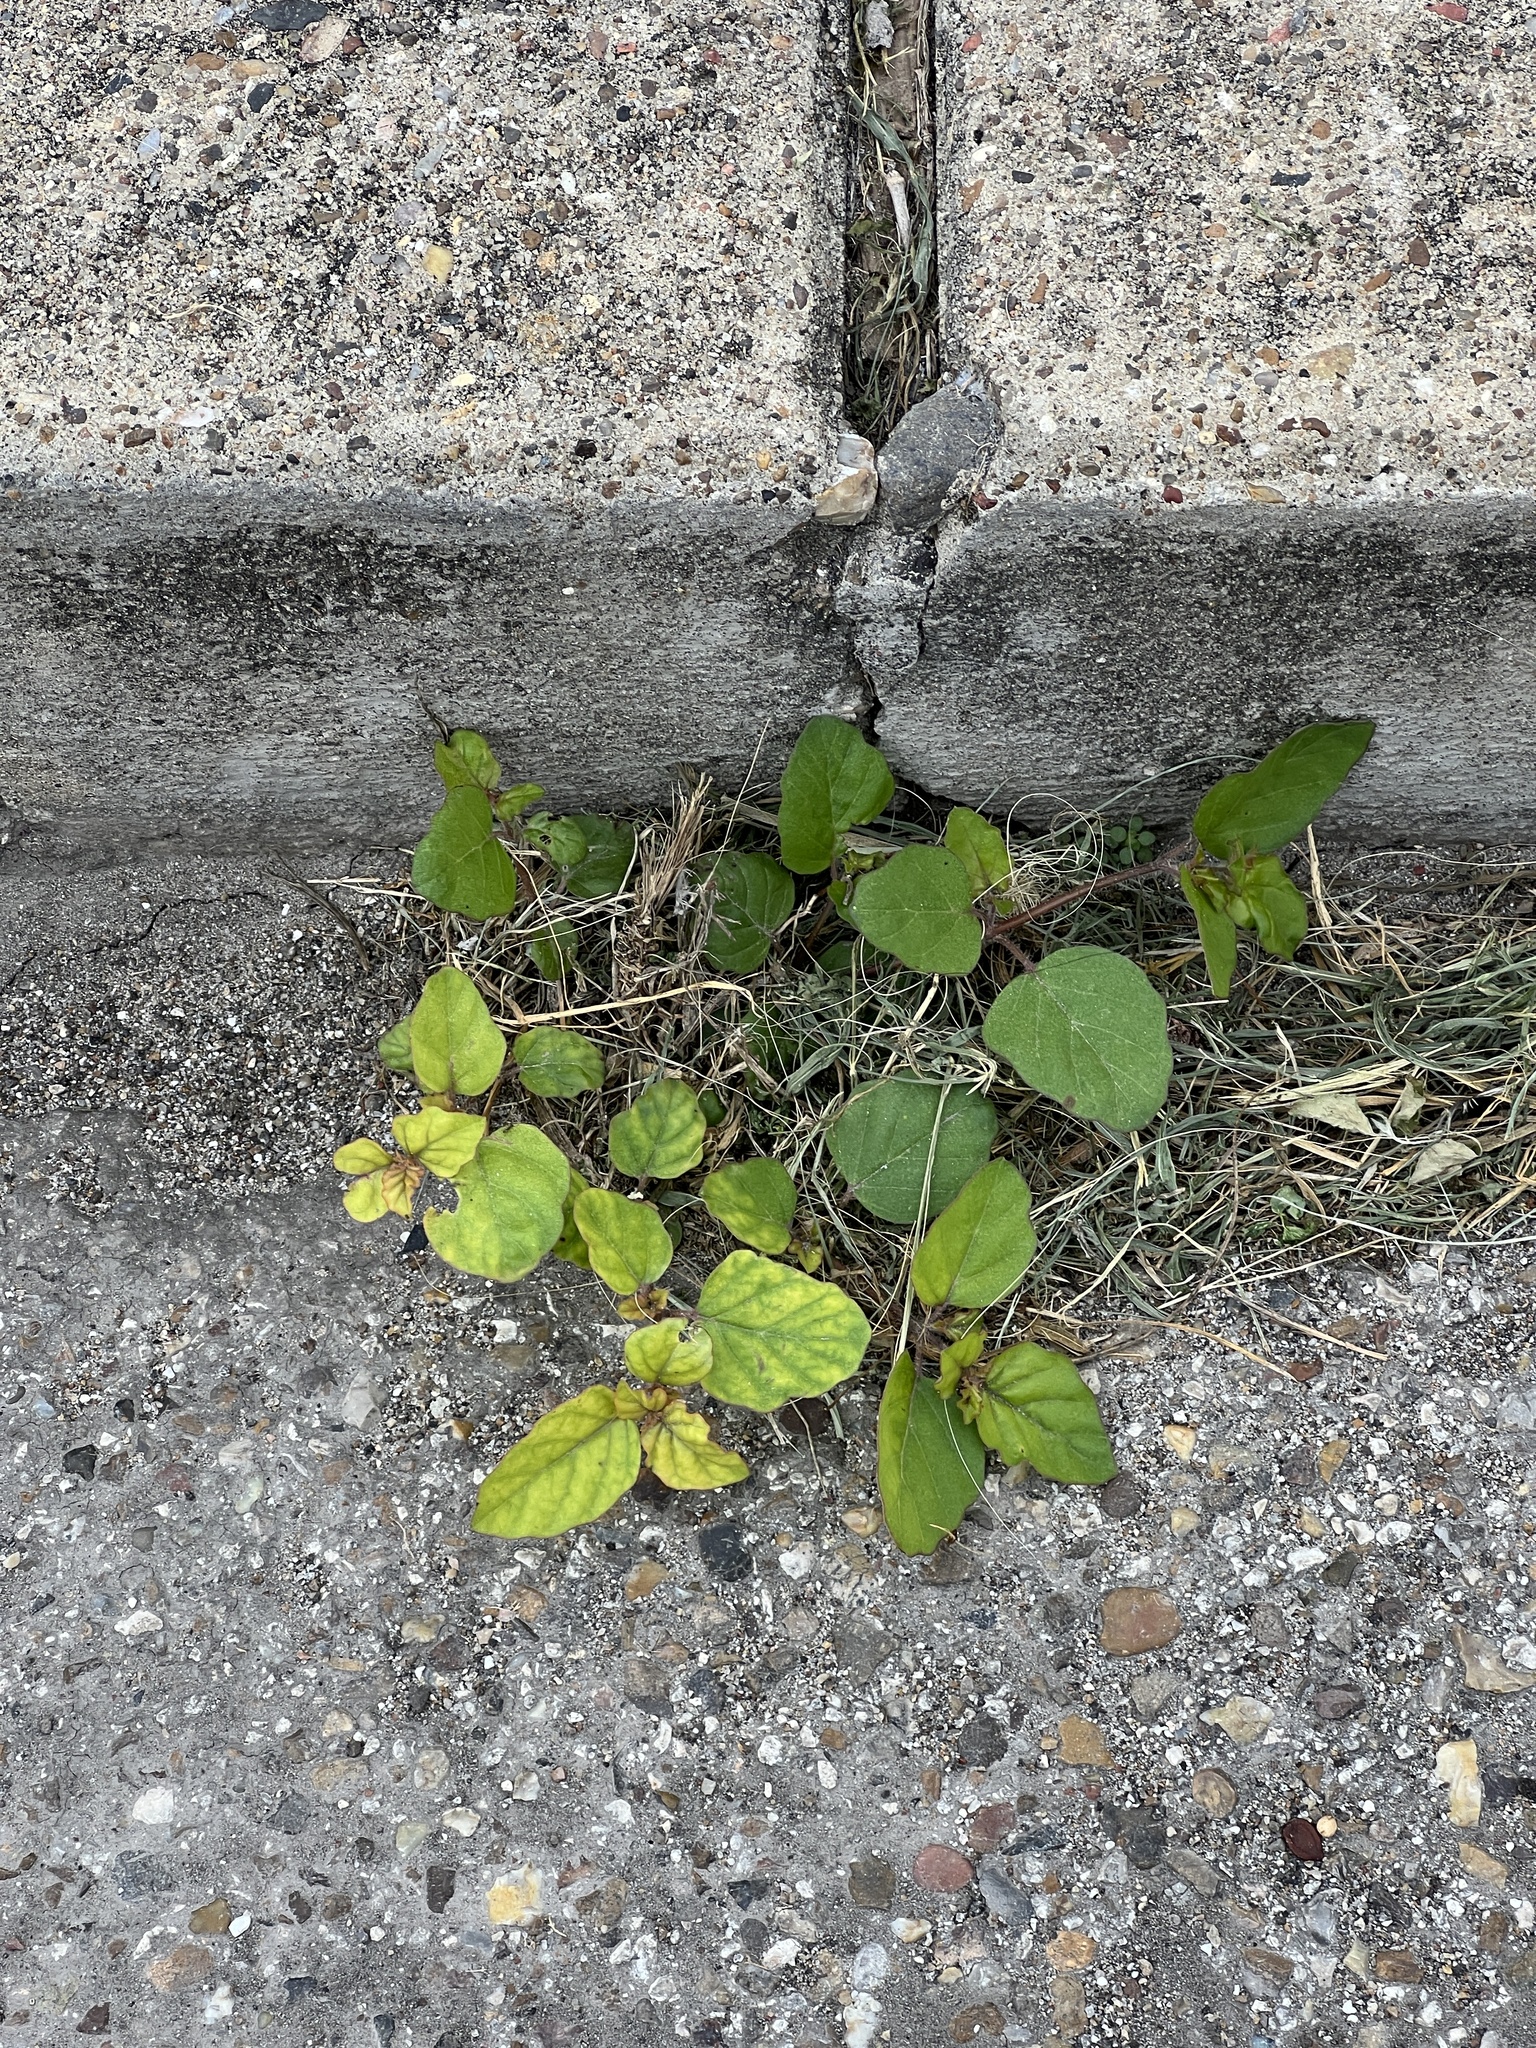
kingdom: Plantae
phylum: Tracheophyta
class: Magnoliopsida
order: Caryophyllales
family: Nyctaginaceae
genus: Boerhavia
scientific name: Boerhavia erecta
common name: Erect spiderling
